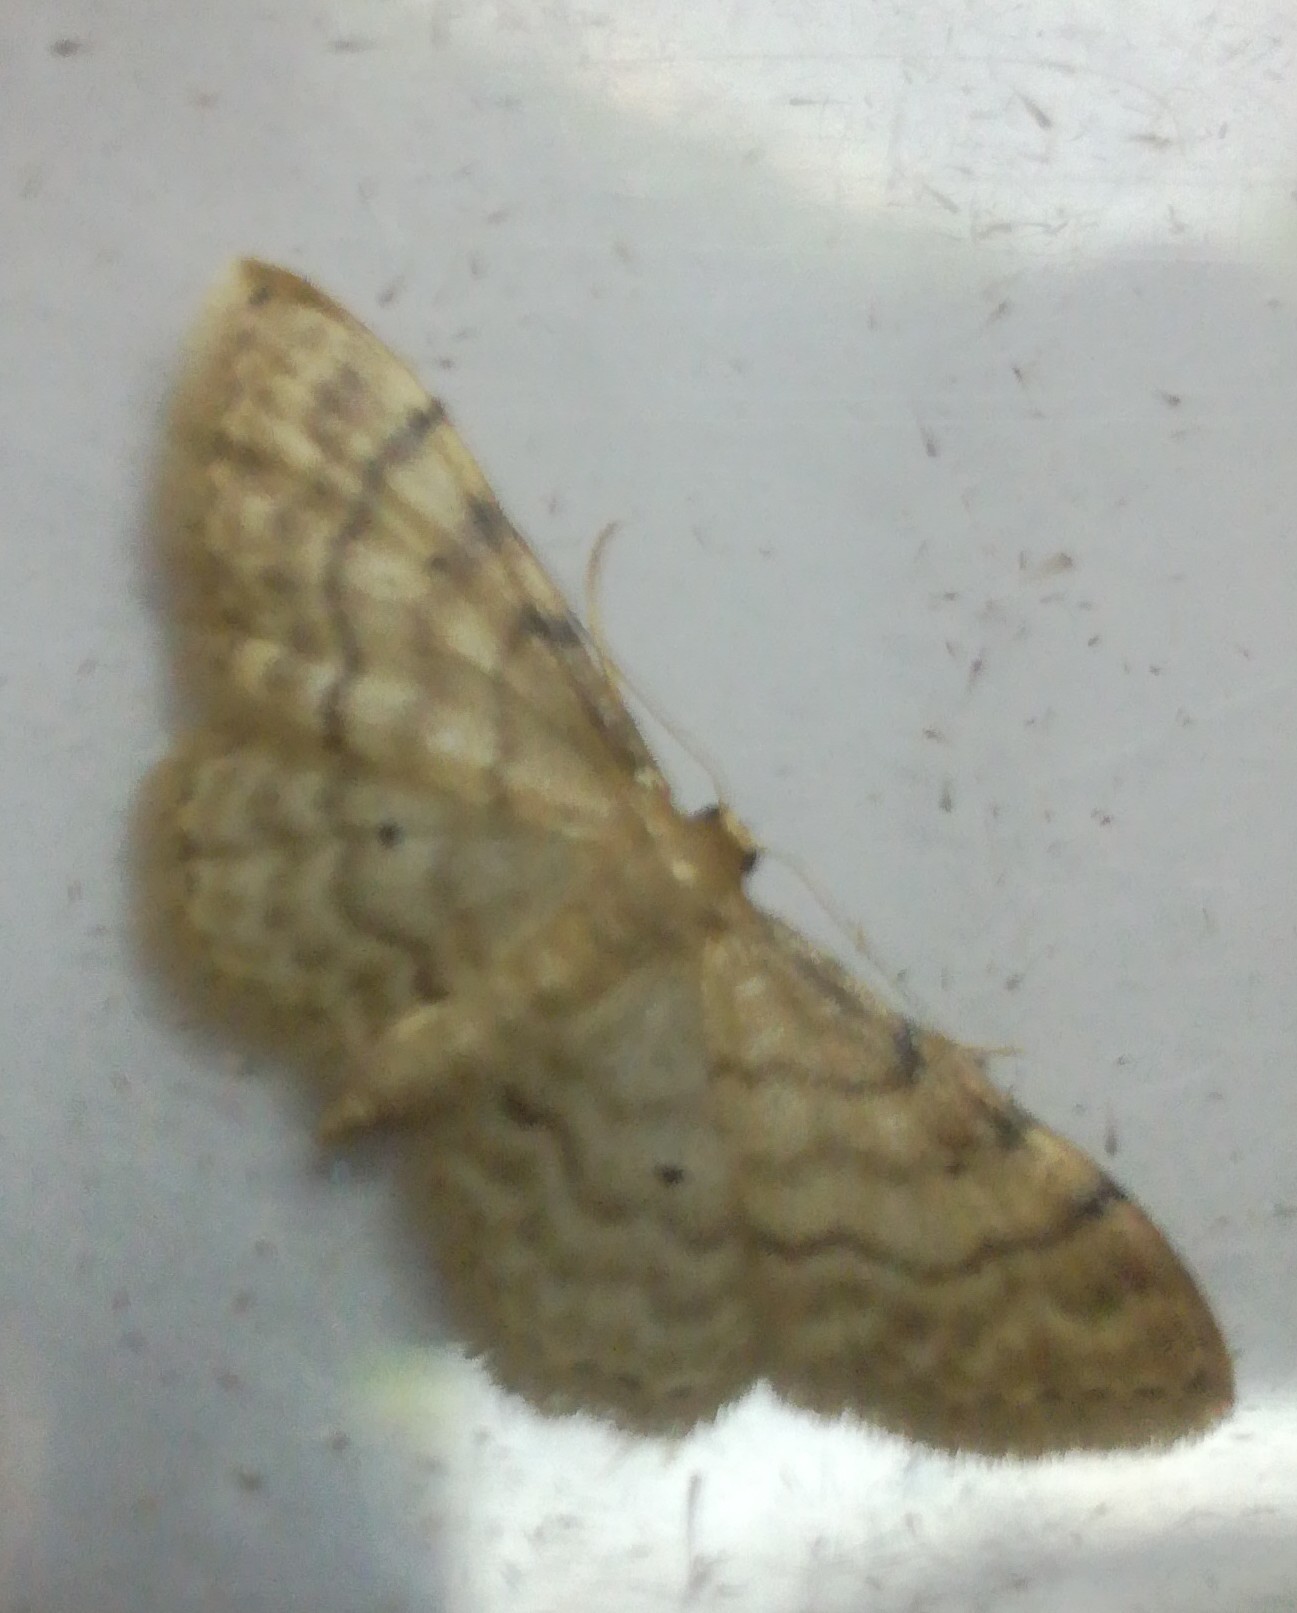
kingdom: Animalia
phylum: Arthropoda
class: Insecta
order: Lepidoptera
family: Geometridae
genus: Idaea
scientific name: Idaea fuscovenosa
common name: Dwarf cream wave
